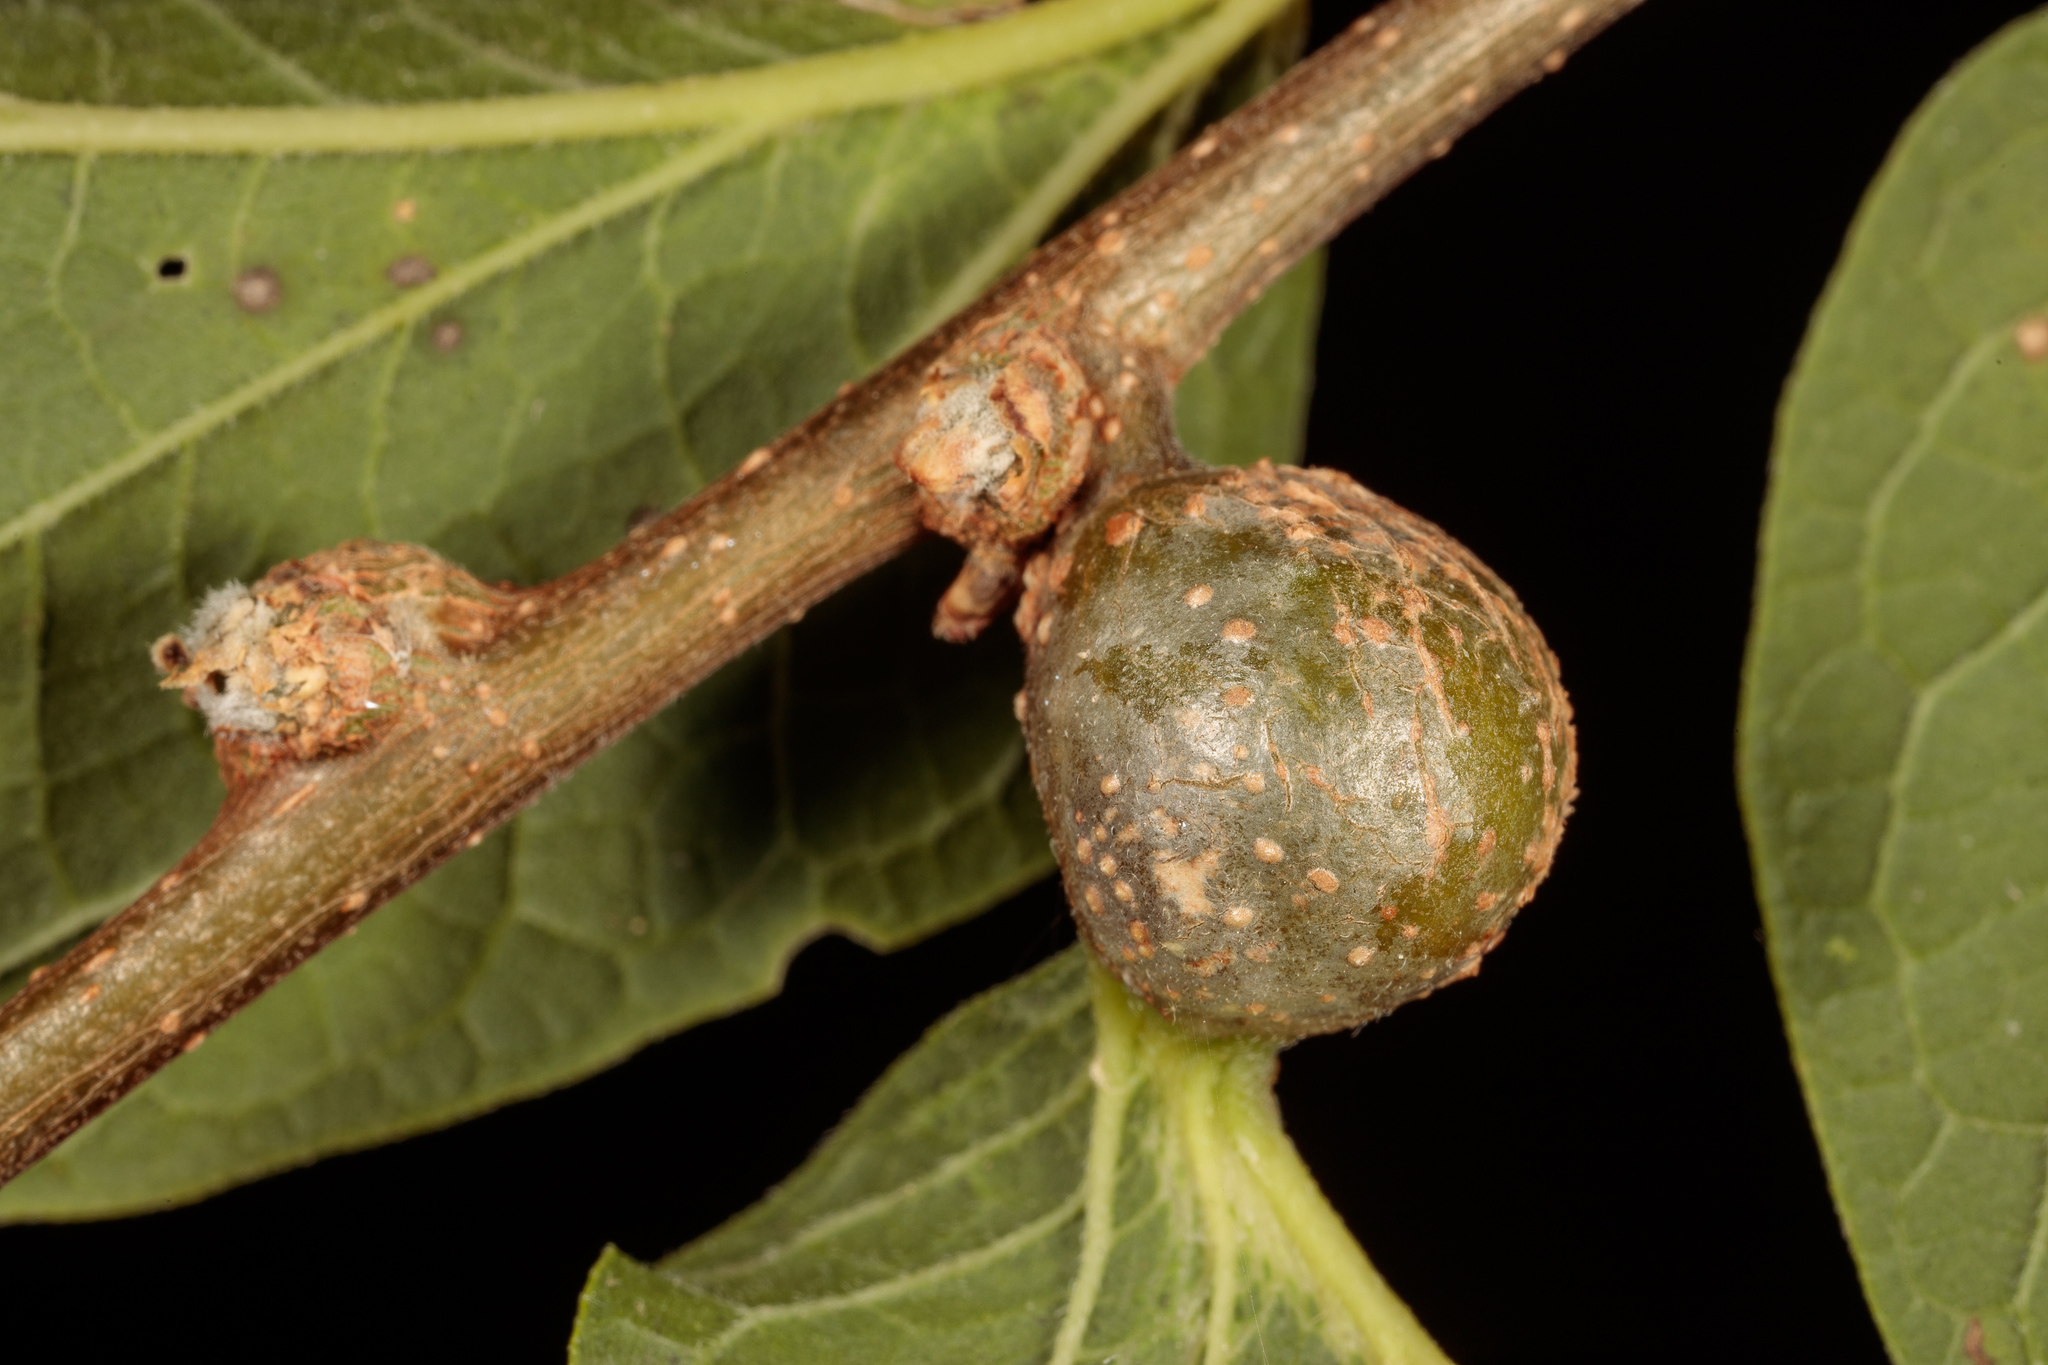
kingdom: Animalia
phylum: Arthropoda
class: Insecta
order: Hemiptera
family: Aphalaridae
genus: Pachypsylla
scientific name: Pachypsylla venusta
